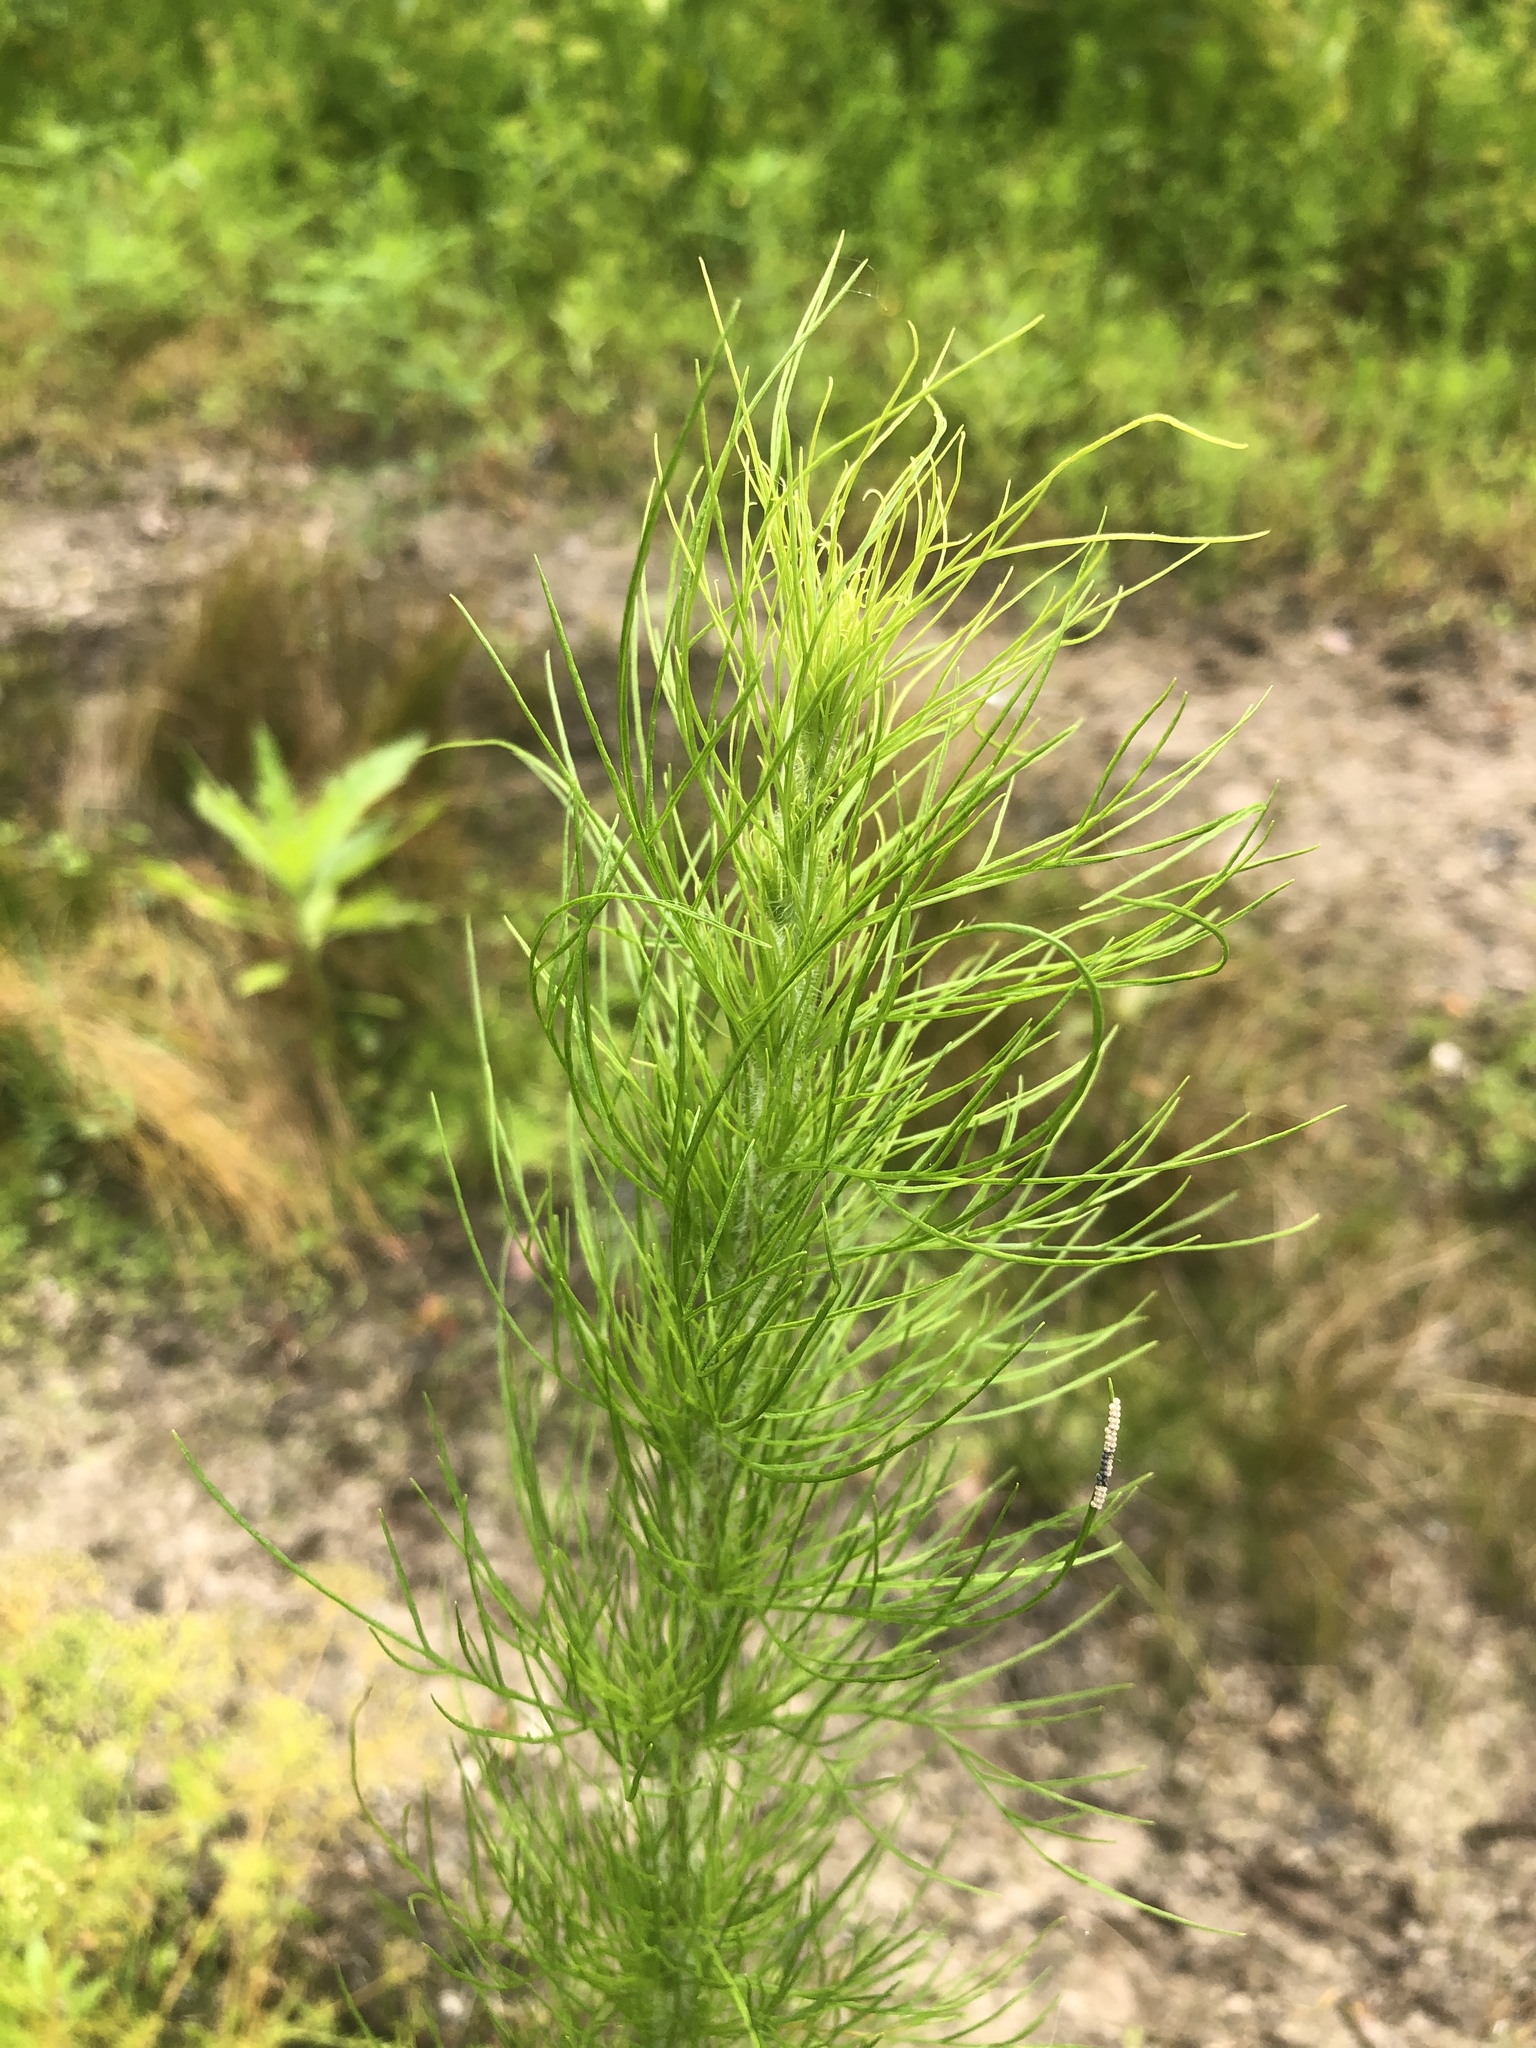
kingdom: Plantae
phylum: Tracheophyta
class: Magnoliopsida
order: Asterales
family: Asteraceae
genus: Eupatorium
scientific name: Eupatorium capillifolium
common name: Dog-fennel
